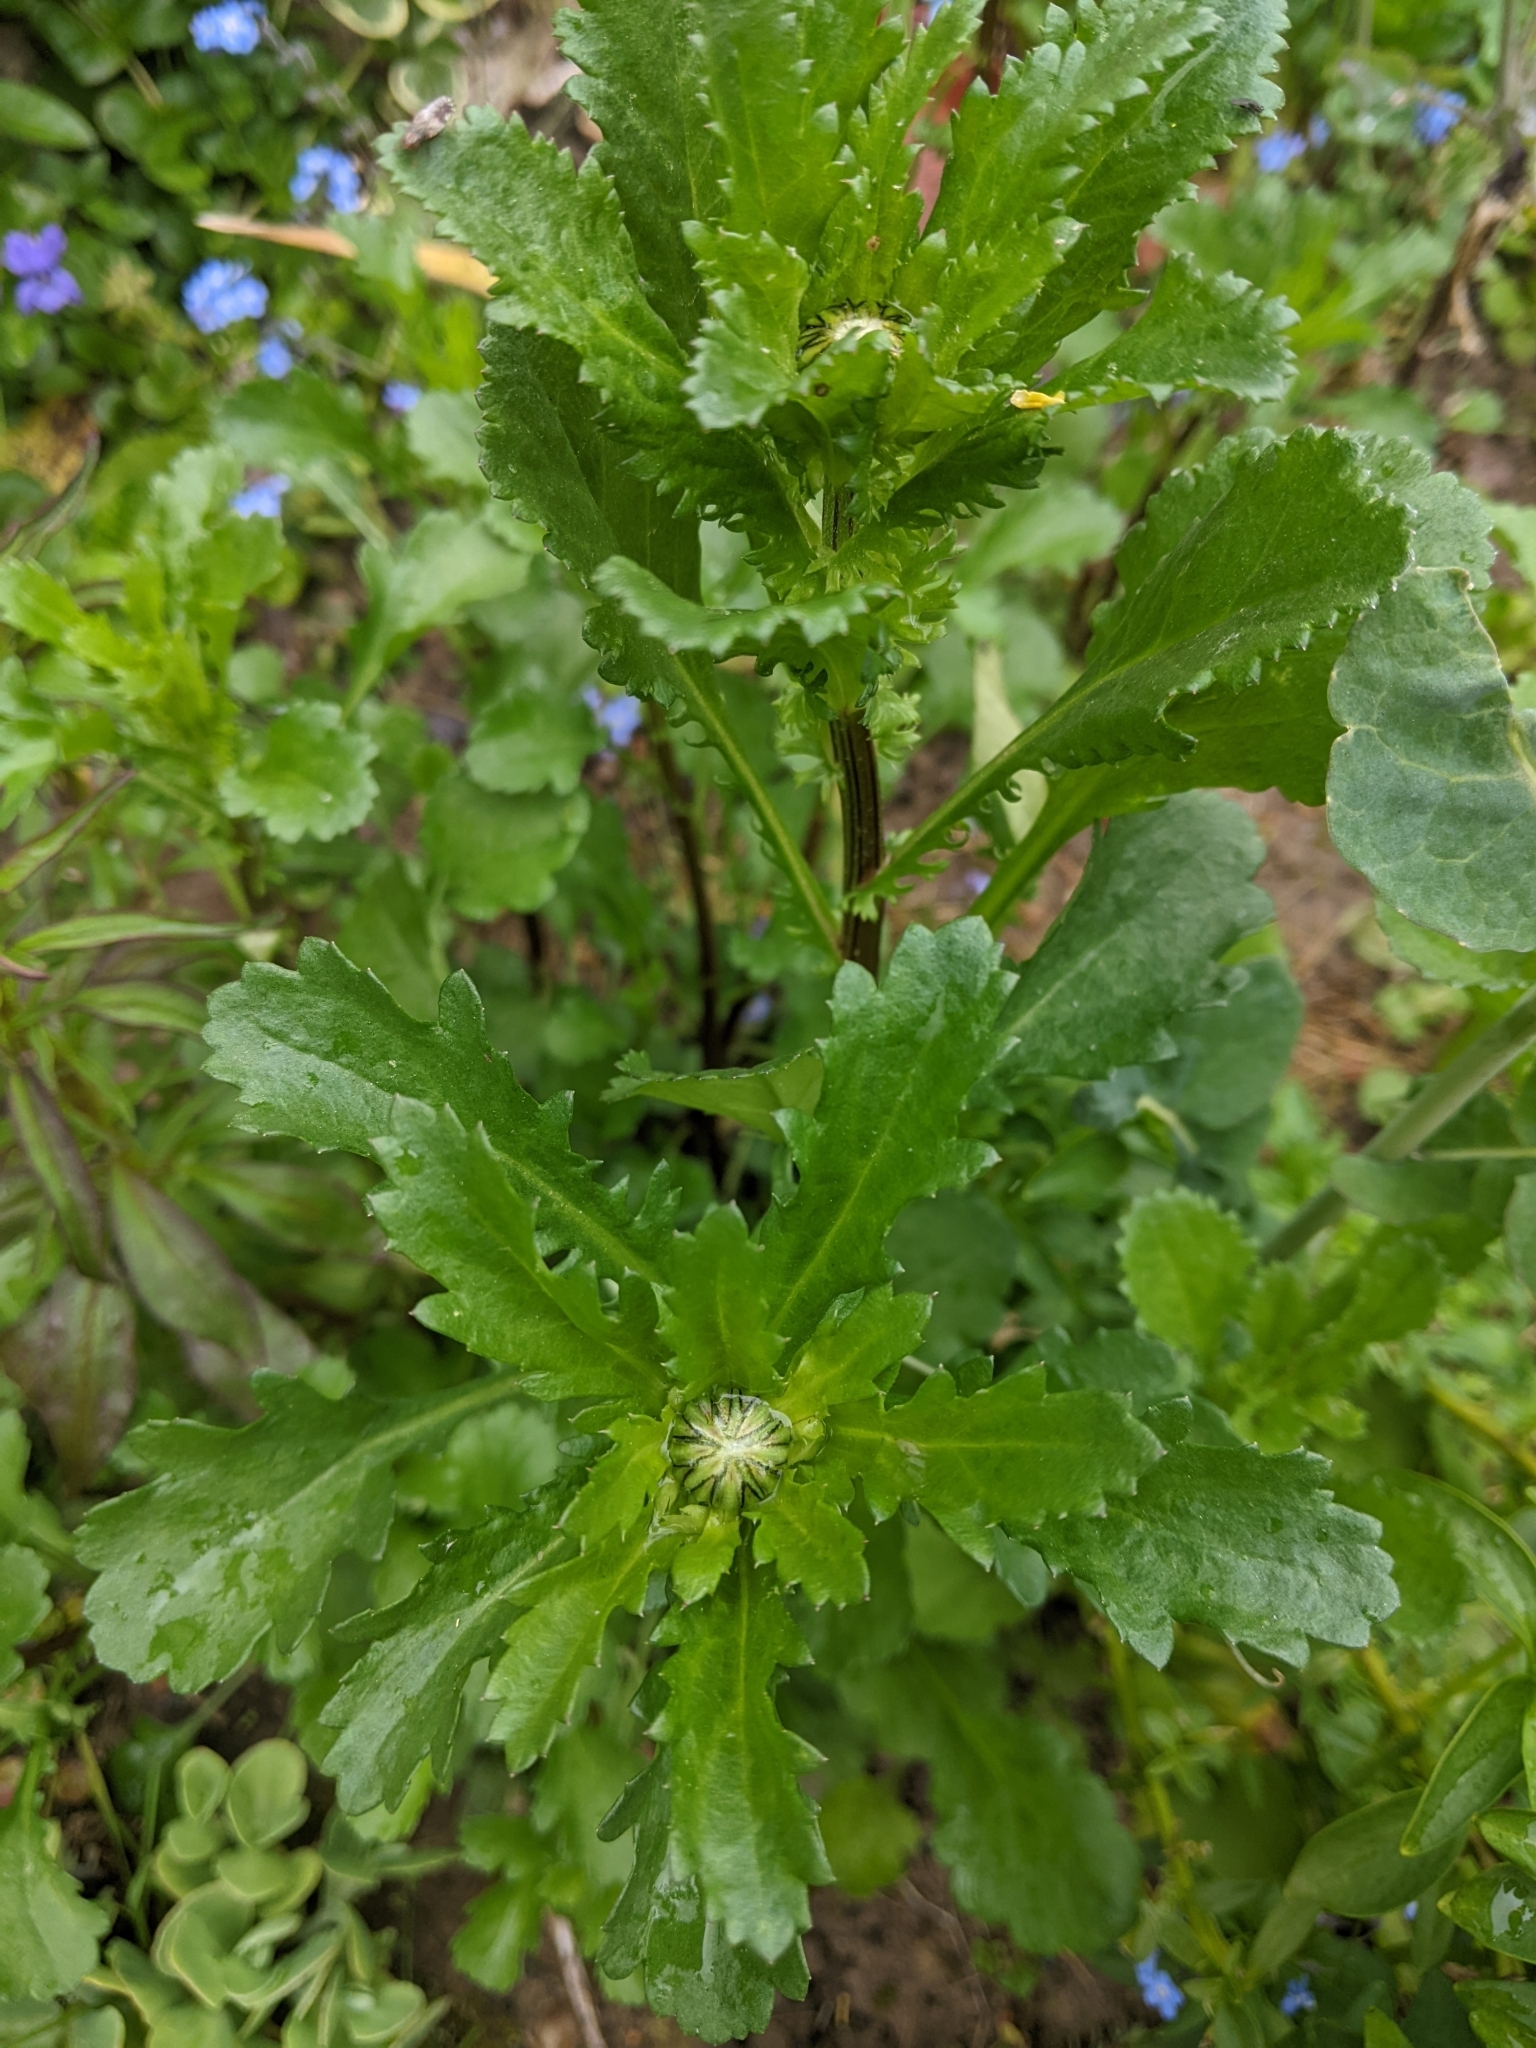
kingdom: Plantae
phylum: Tracheophyta
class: Magnoliopsida
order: Asterales
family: Asteraceae
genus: Leucanthemum
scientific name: Leucanthemum vulgare
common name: Oxeye daisy
